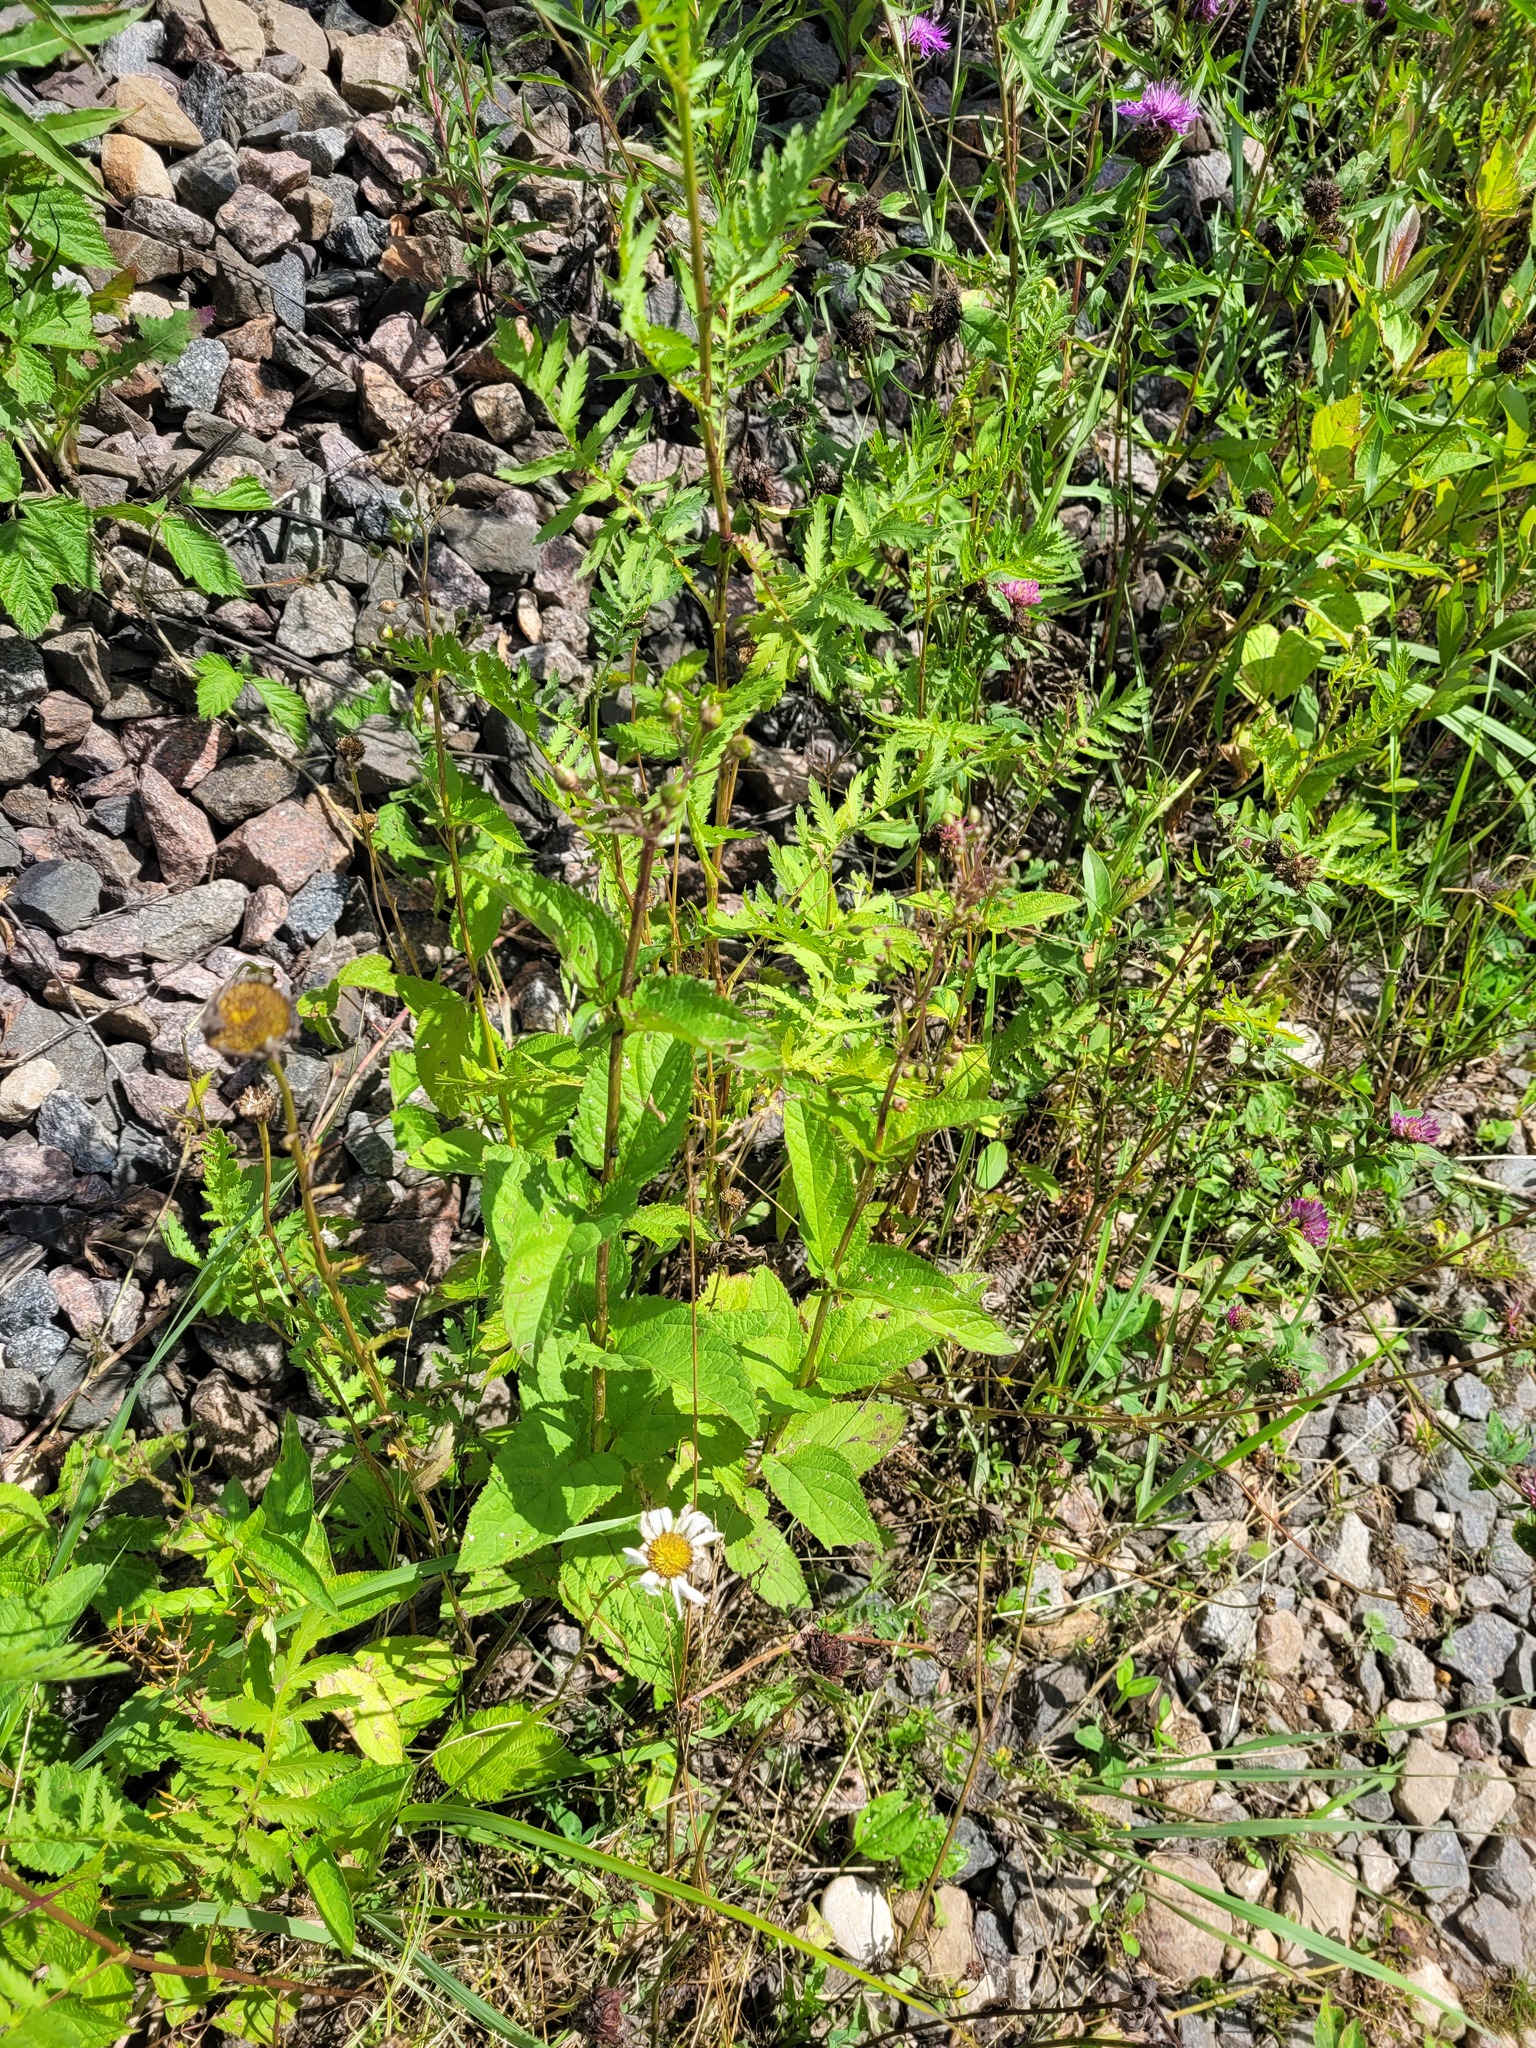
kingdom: Plantae
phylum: Tracheophyta
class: Magnoliopsida
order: Lamiales
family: Scrophulariaceae
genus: Scrophularia
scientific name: Scrophularia nodosa
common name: Common figwort
